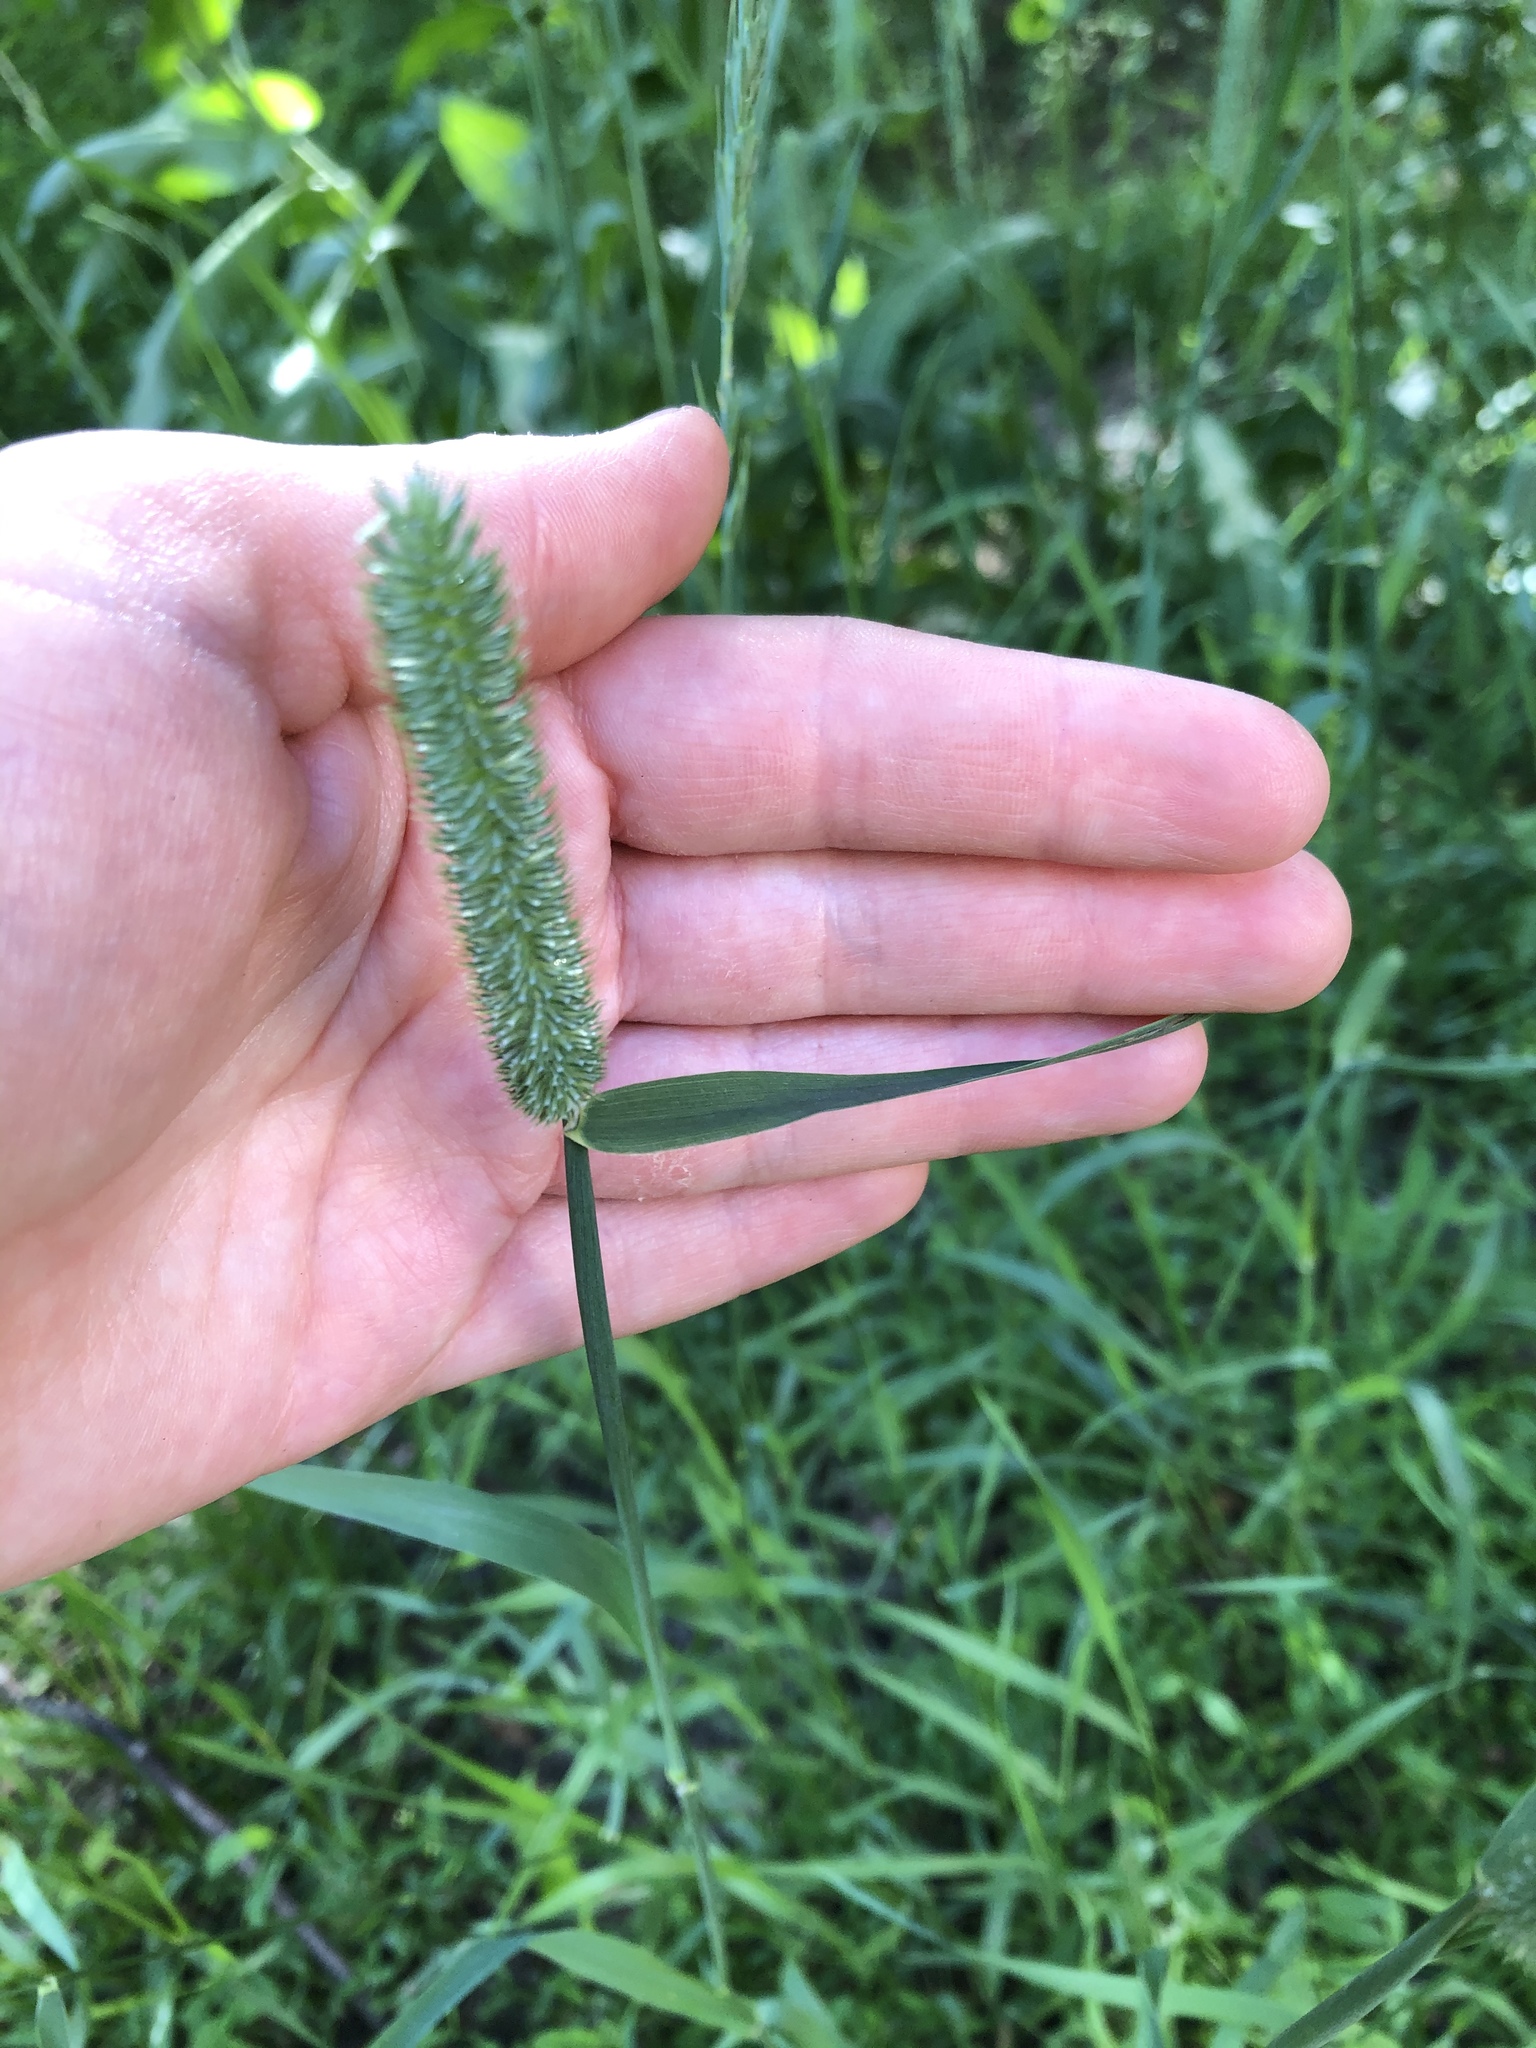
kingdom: Plantae
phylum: Tracheophyta
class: Liliopsida
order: Poales
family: Poaceae
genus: Phleum
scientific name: Phleum pratense
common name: Timothy grass
